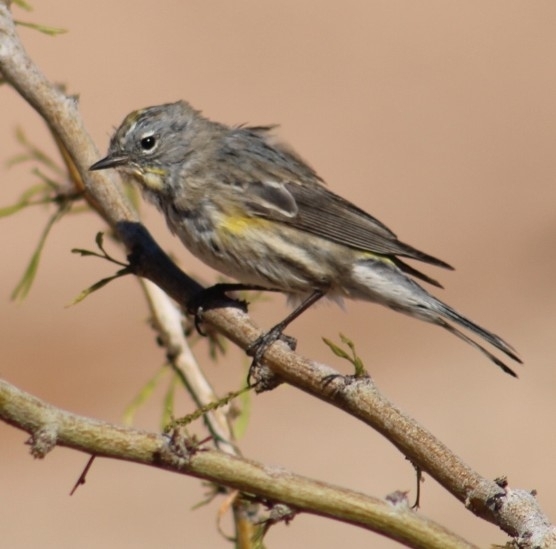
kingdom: Animalia
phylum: Chordata
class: Aves
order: Passeriformes
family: Parulidae
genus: Setophaga
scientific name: Setophaga coronata
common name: Myrtle warbler
